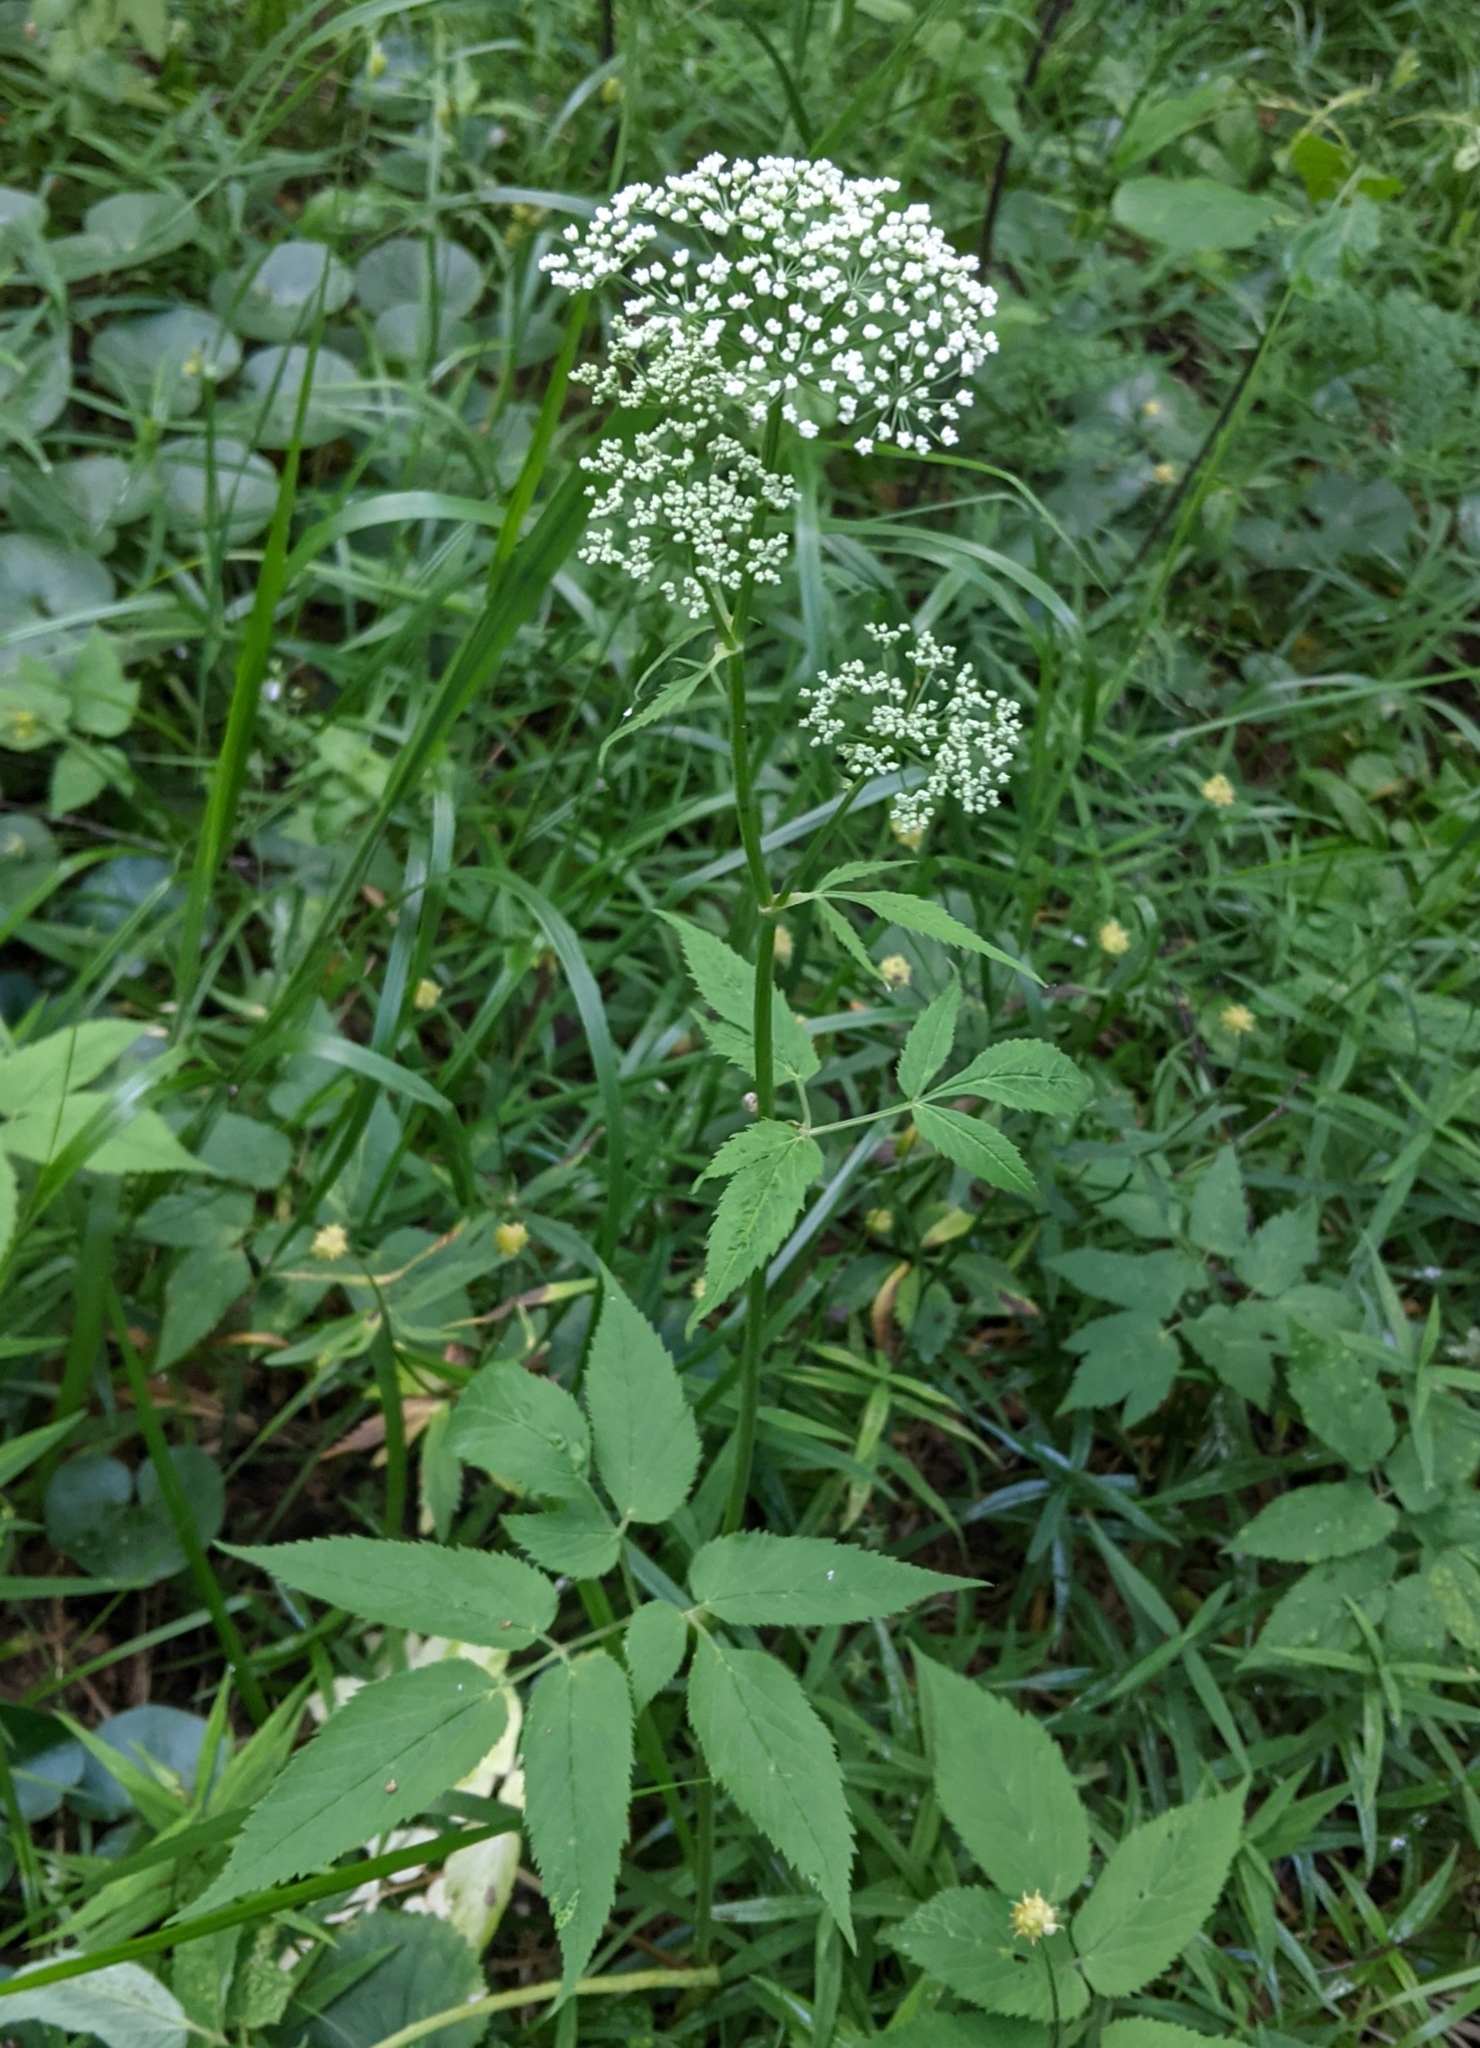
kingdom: Plantae
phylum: Tracheophyta
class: Magnoliopsida
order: Apiales
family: Apiaceae
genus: Aegopodium
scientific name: Aegopodium podagraria
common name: Ground-elder
